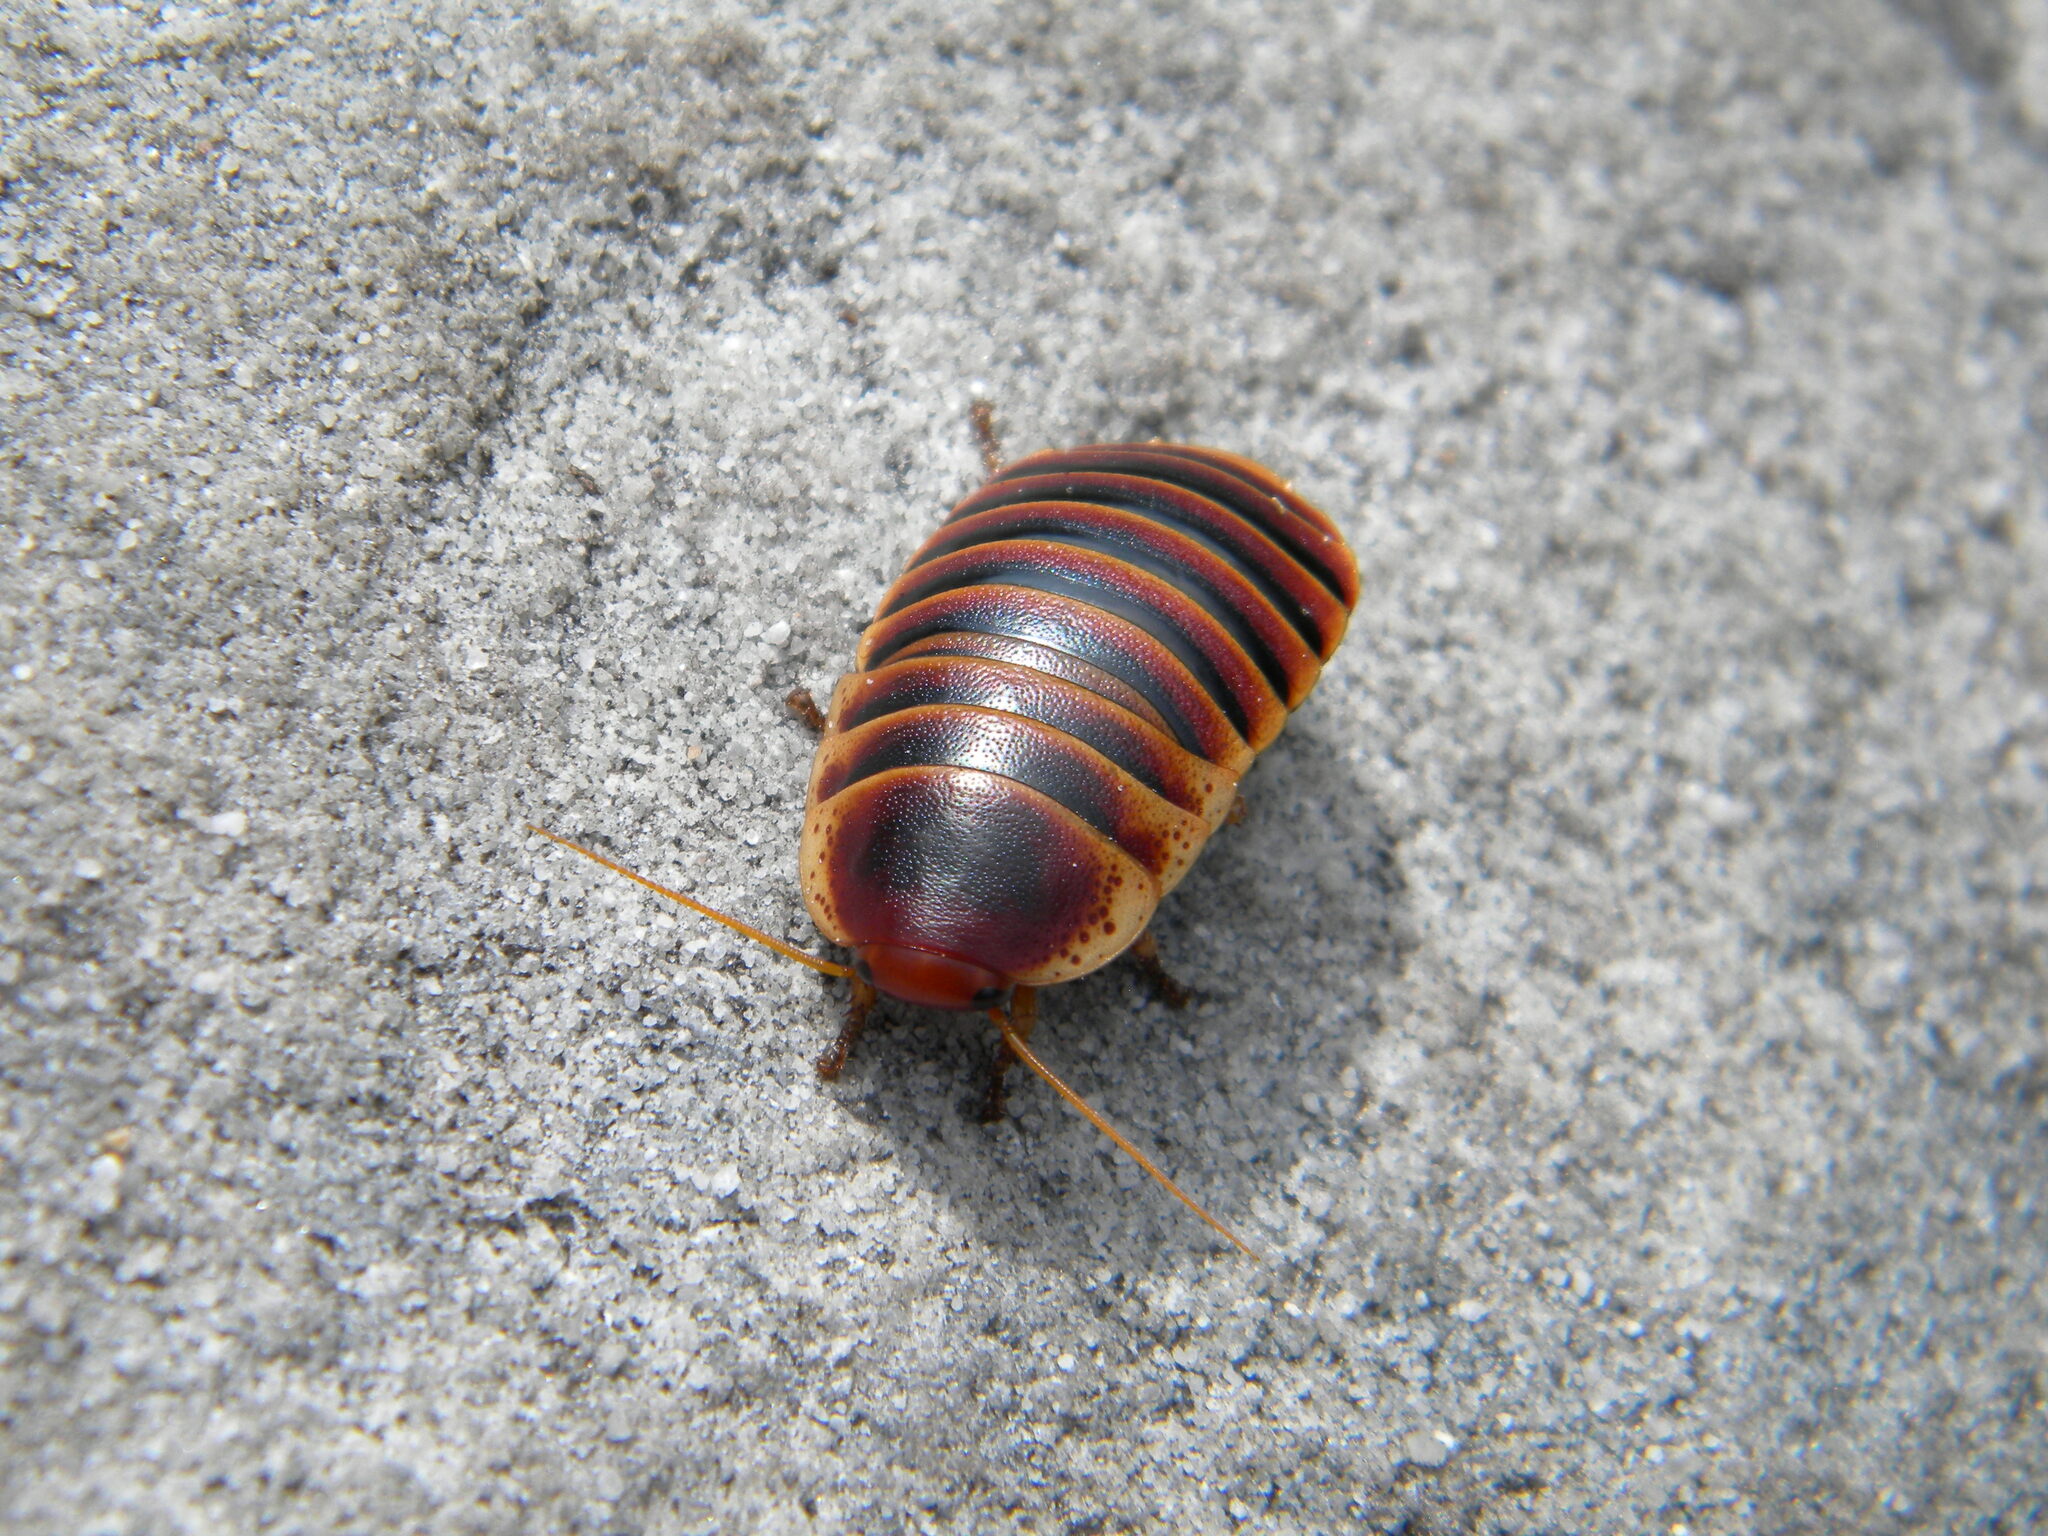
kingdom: Animalia
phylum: Arthropoda
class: Insecta
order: Blattodea
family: Blaberidae
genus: Aptera
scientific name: Aptera fusca
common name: Cape mountain cockroach
